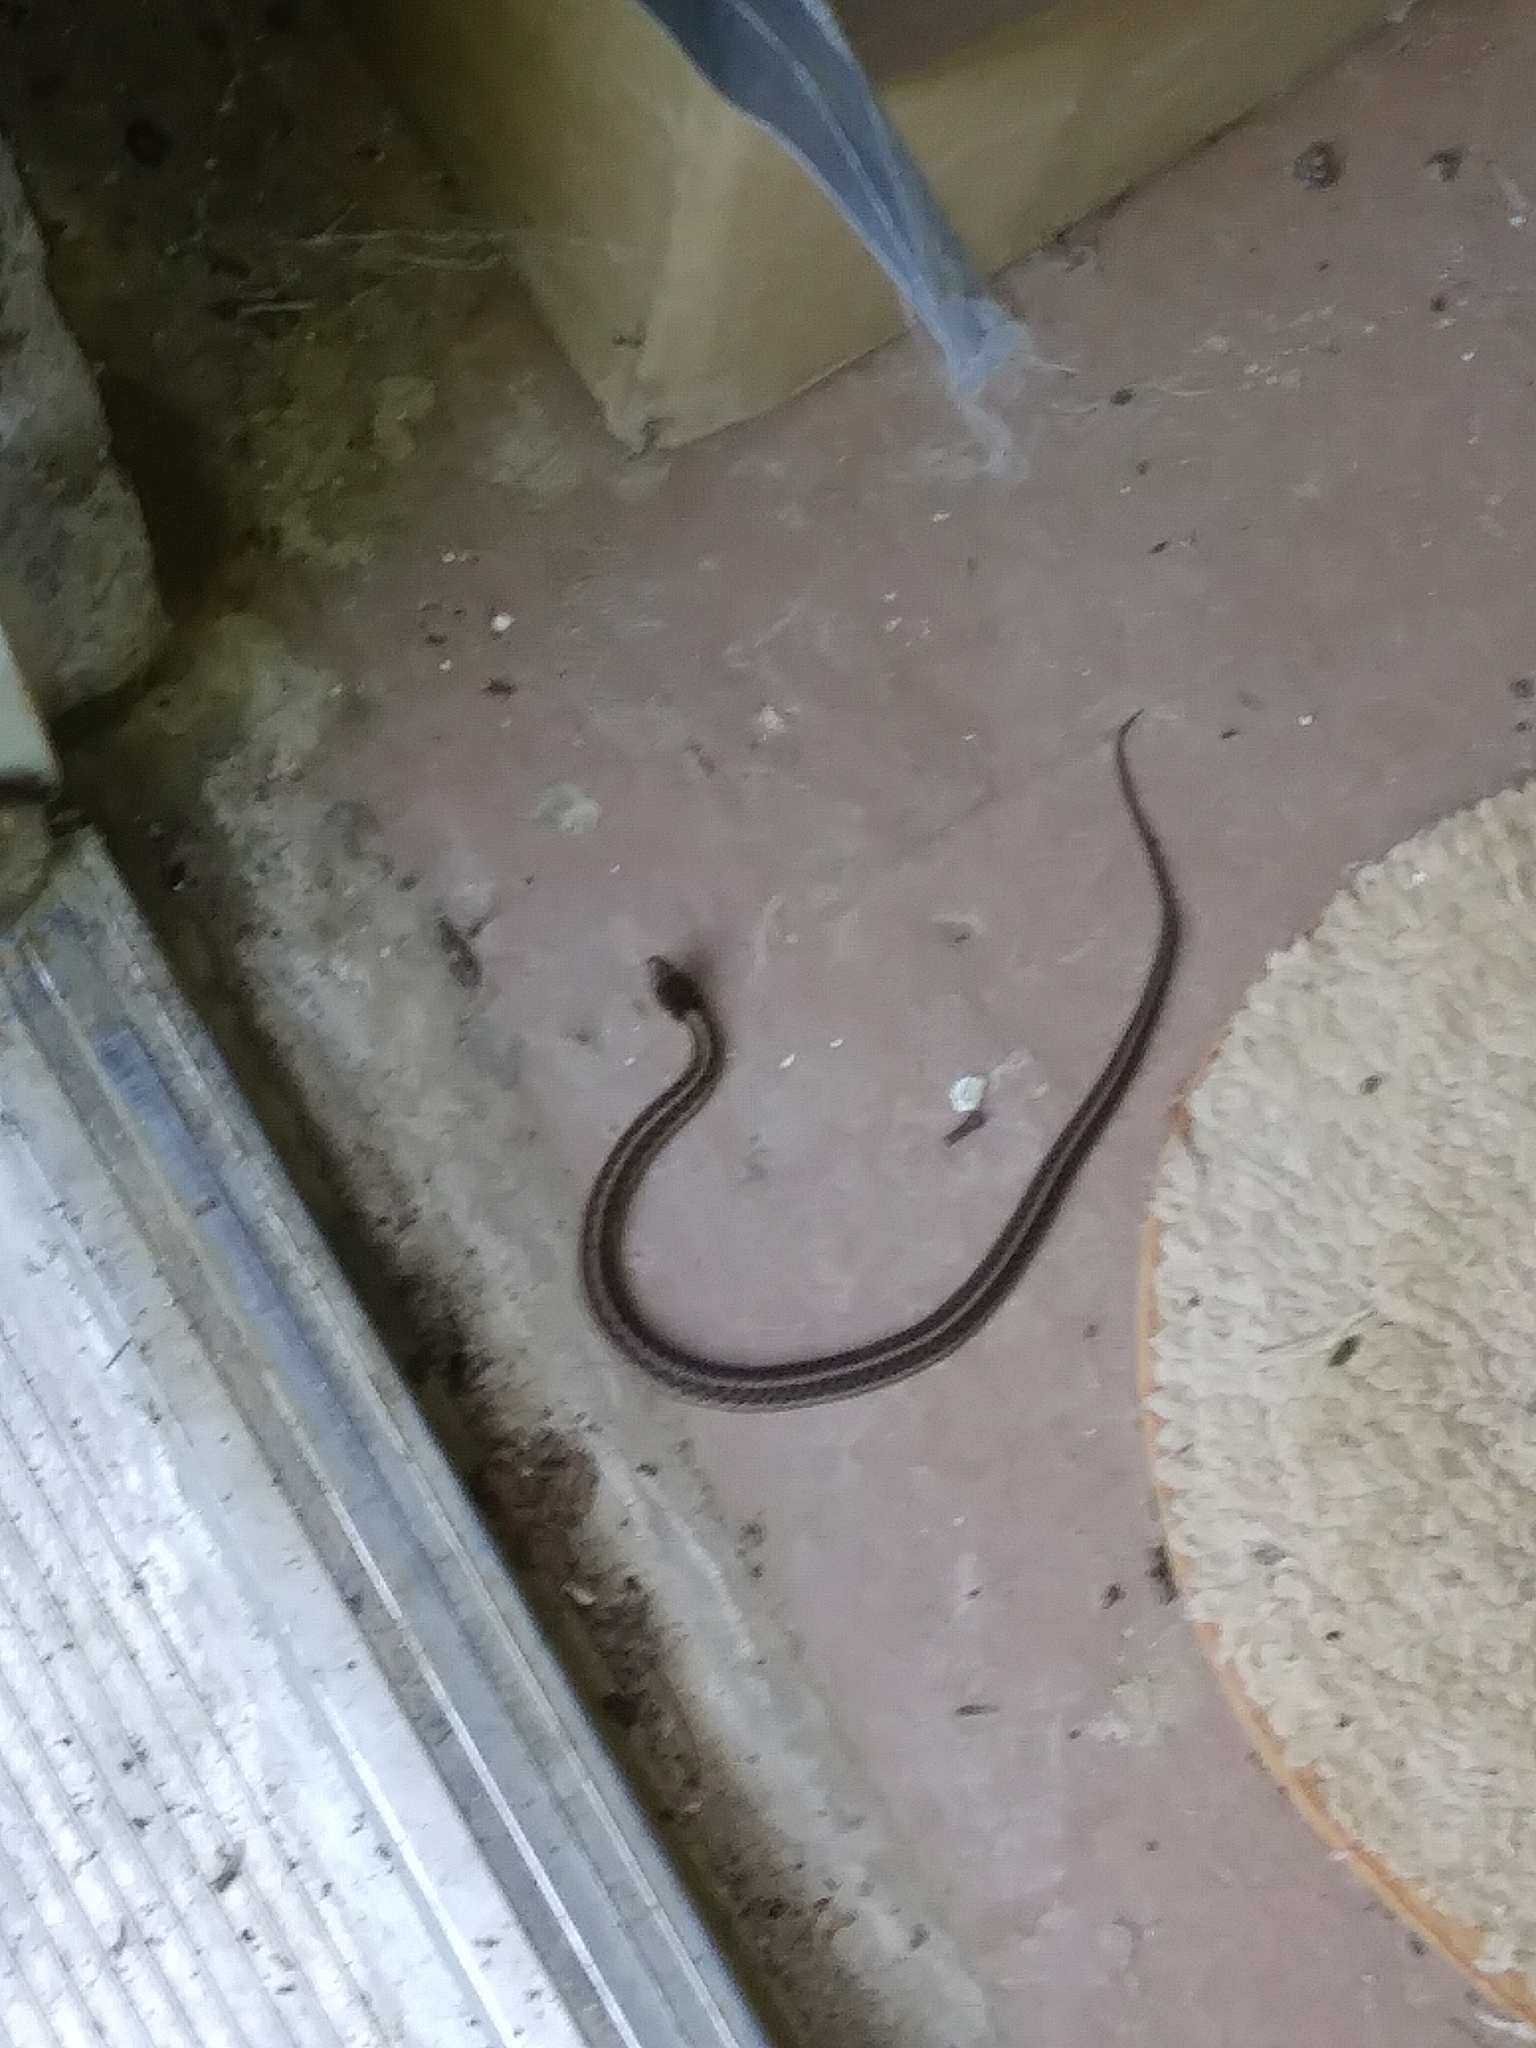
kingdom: Animalia
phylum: Chordata
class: Squamata
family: Colubridae
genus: Thamnophis
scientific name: Thamnophis sirtalis
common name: Common garter snake
